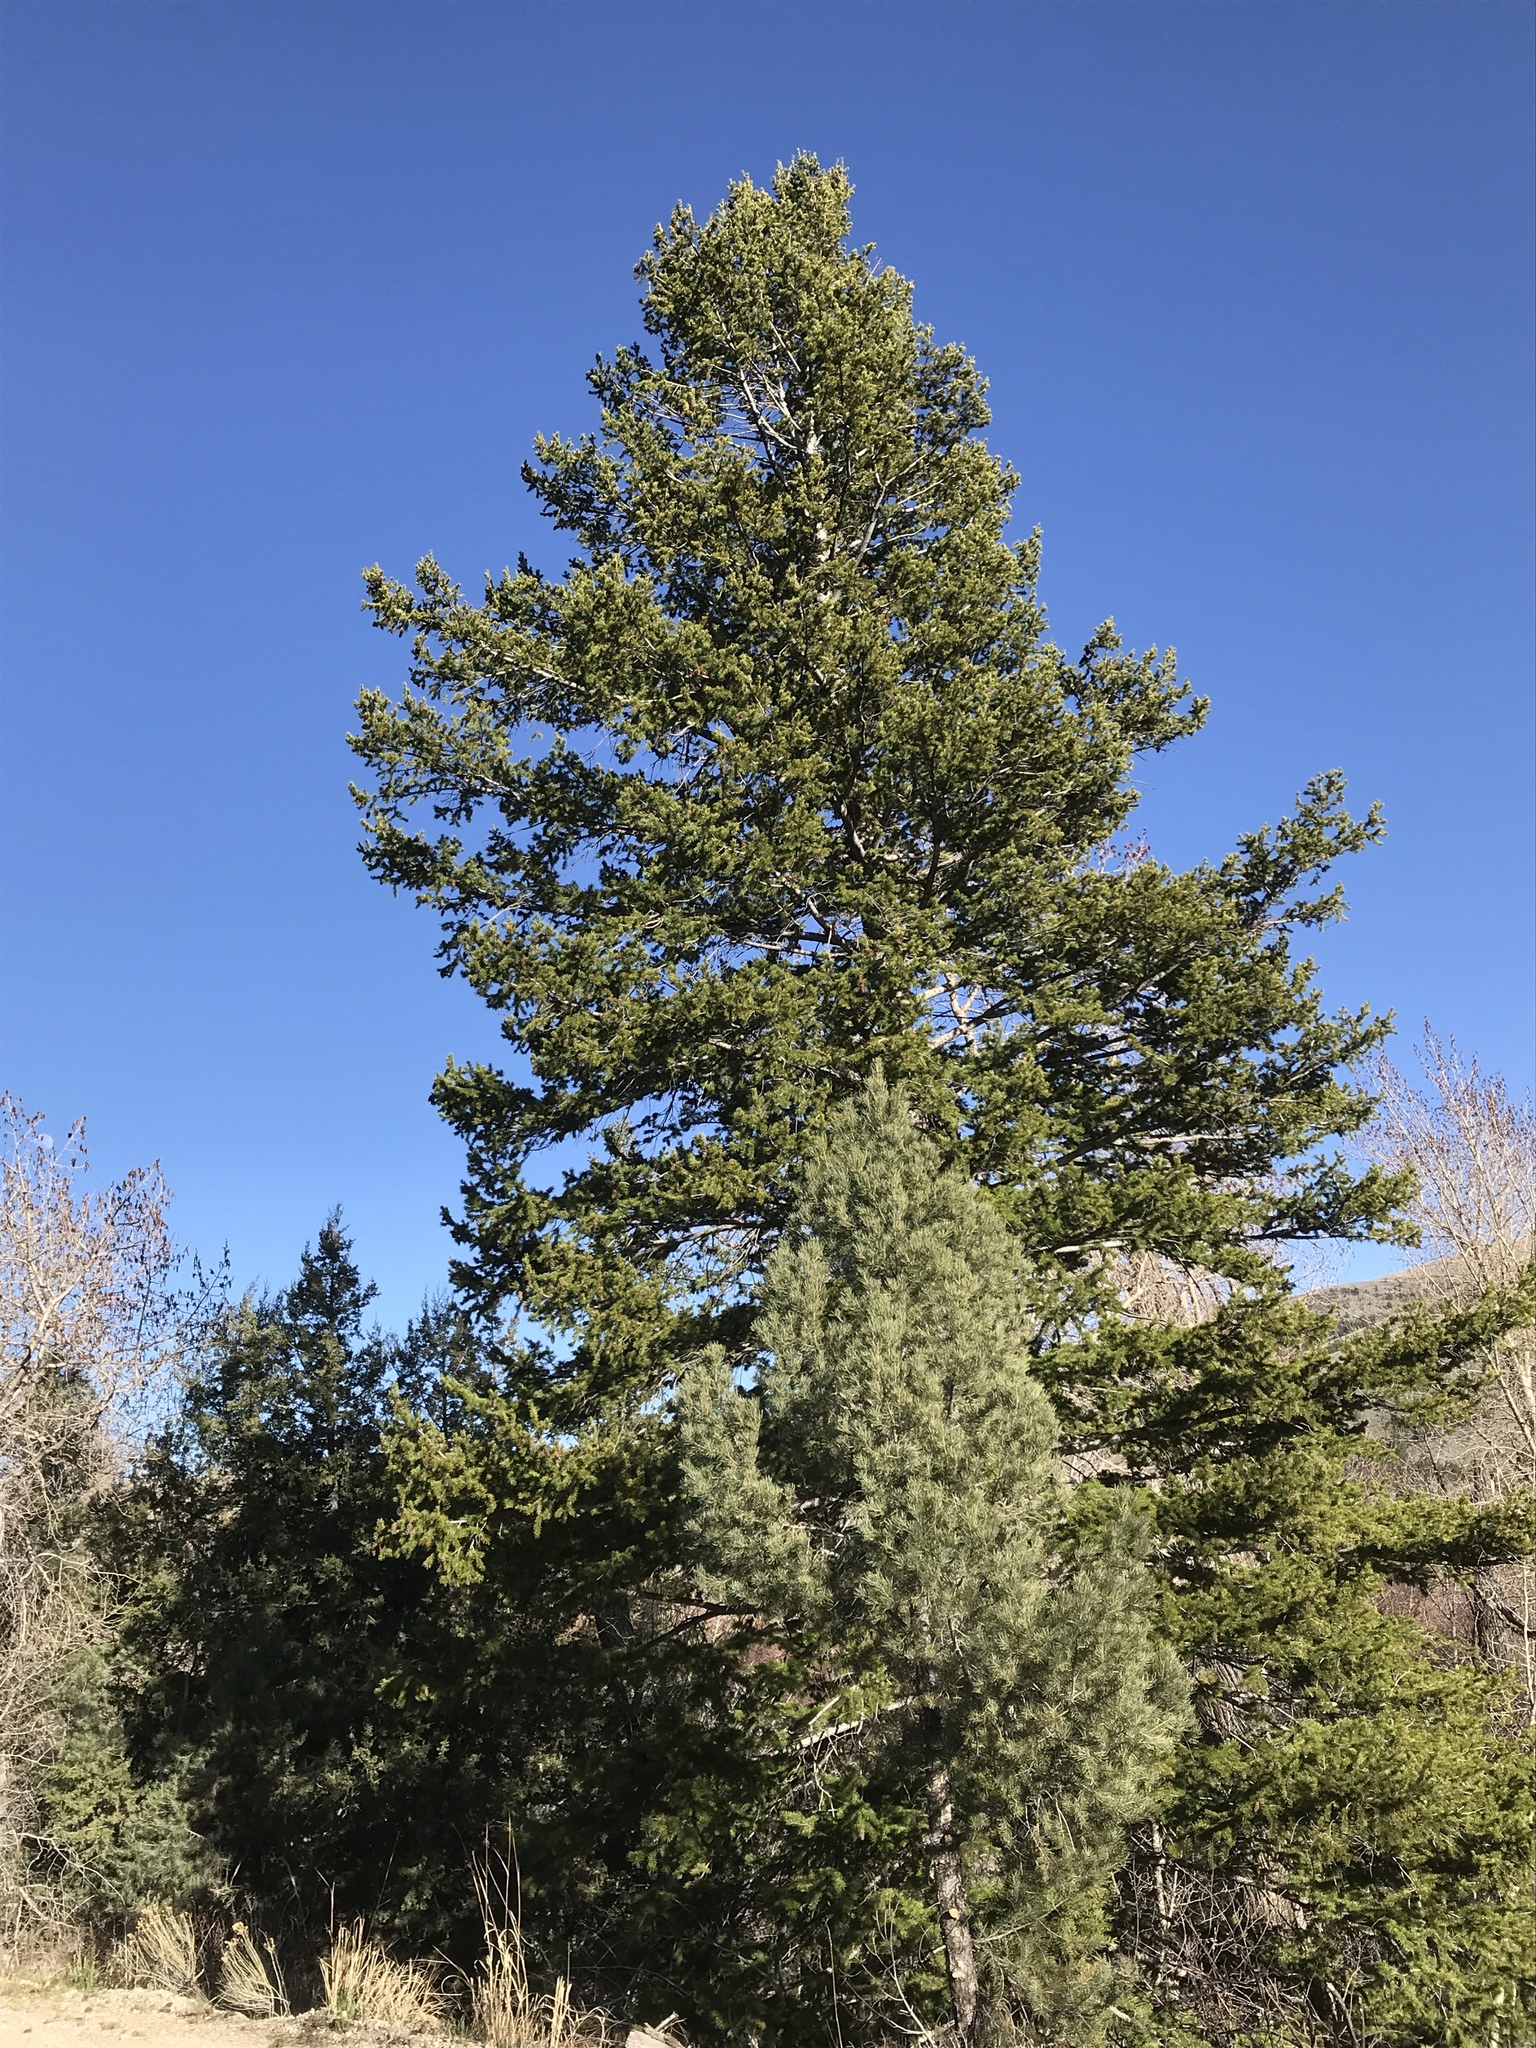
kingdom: Plantae
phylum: Tracheophyta
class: Pinopsida
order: Pinales
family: Pinaceae
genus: Pseudotsuga
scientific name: Pseudotsuga menziesii
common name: Douglas fir
